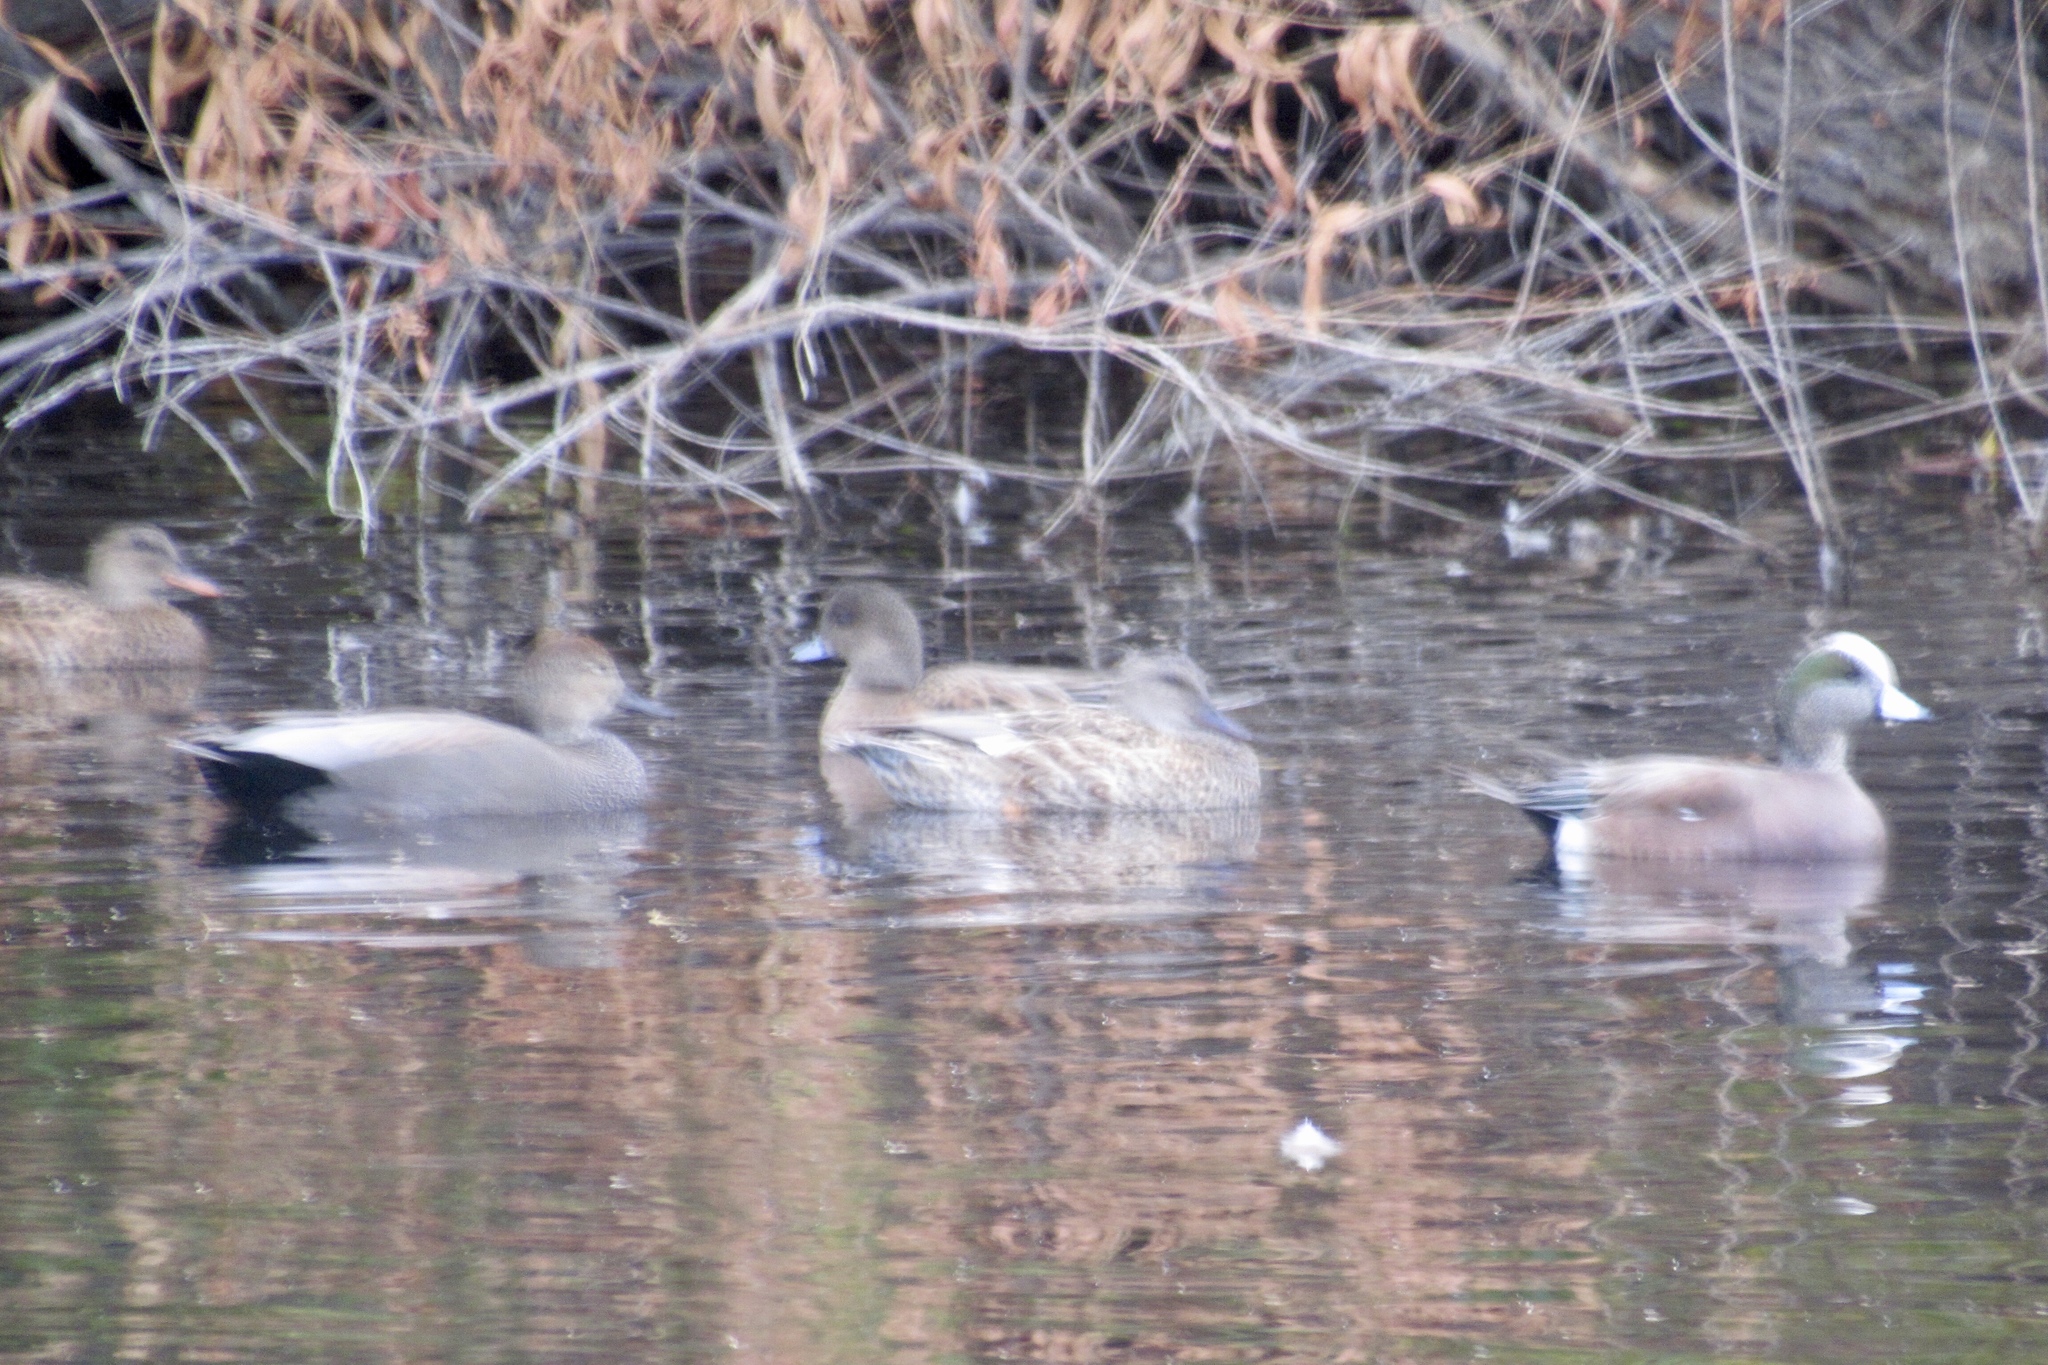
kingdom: Animalia
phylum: Chordata
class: Aves
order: Anseriformes
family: Anatidae
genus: Mareca
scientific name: Mareca strepera
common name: Gadwall
